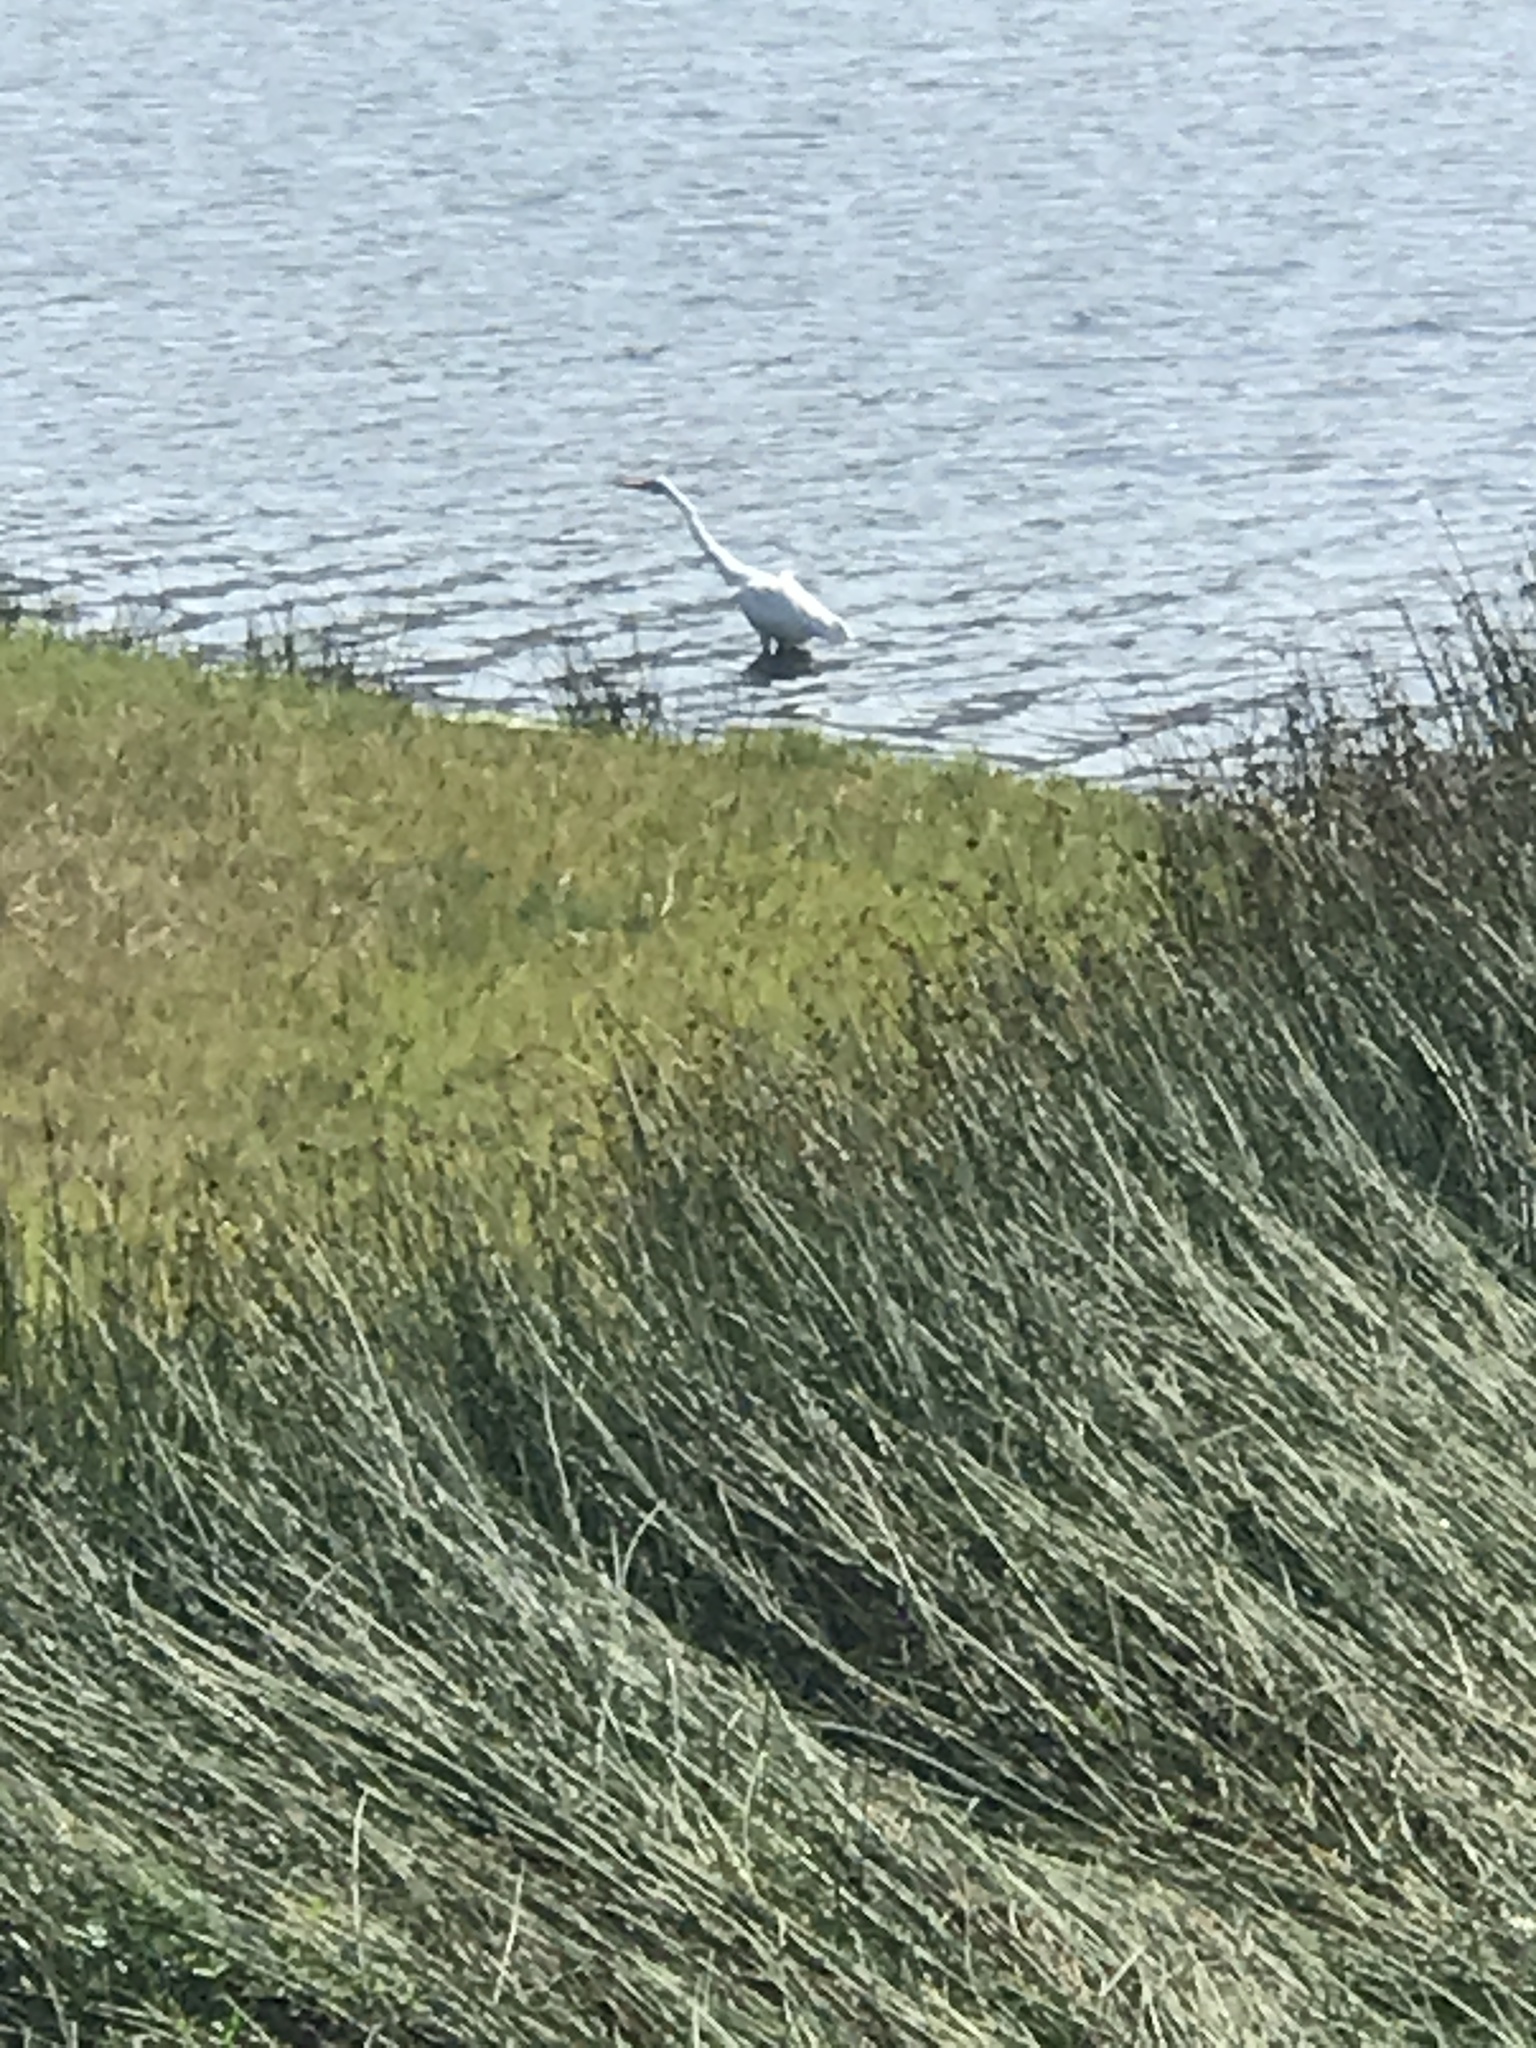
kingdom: Animalia
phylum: Chordata
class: Aves
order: Pelecaniformes
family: Ardeidae
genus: Ardea
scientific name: Ardea alba
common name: Great egret
